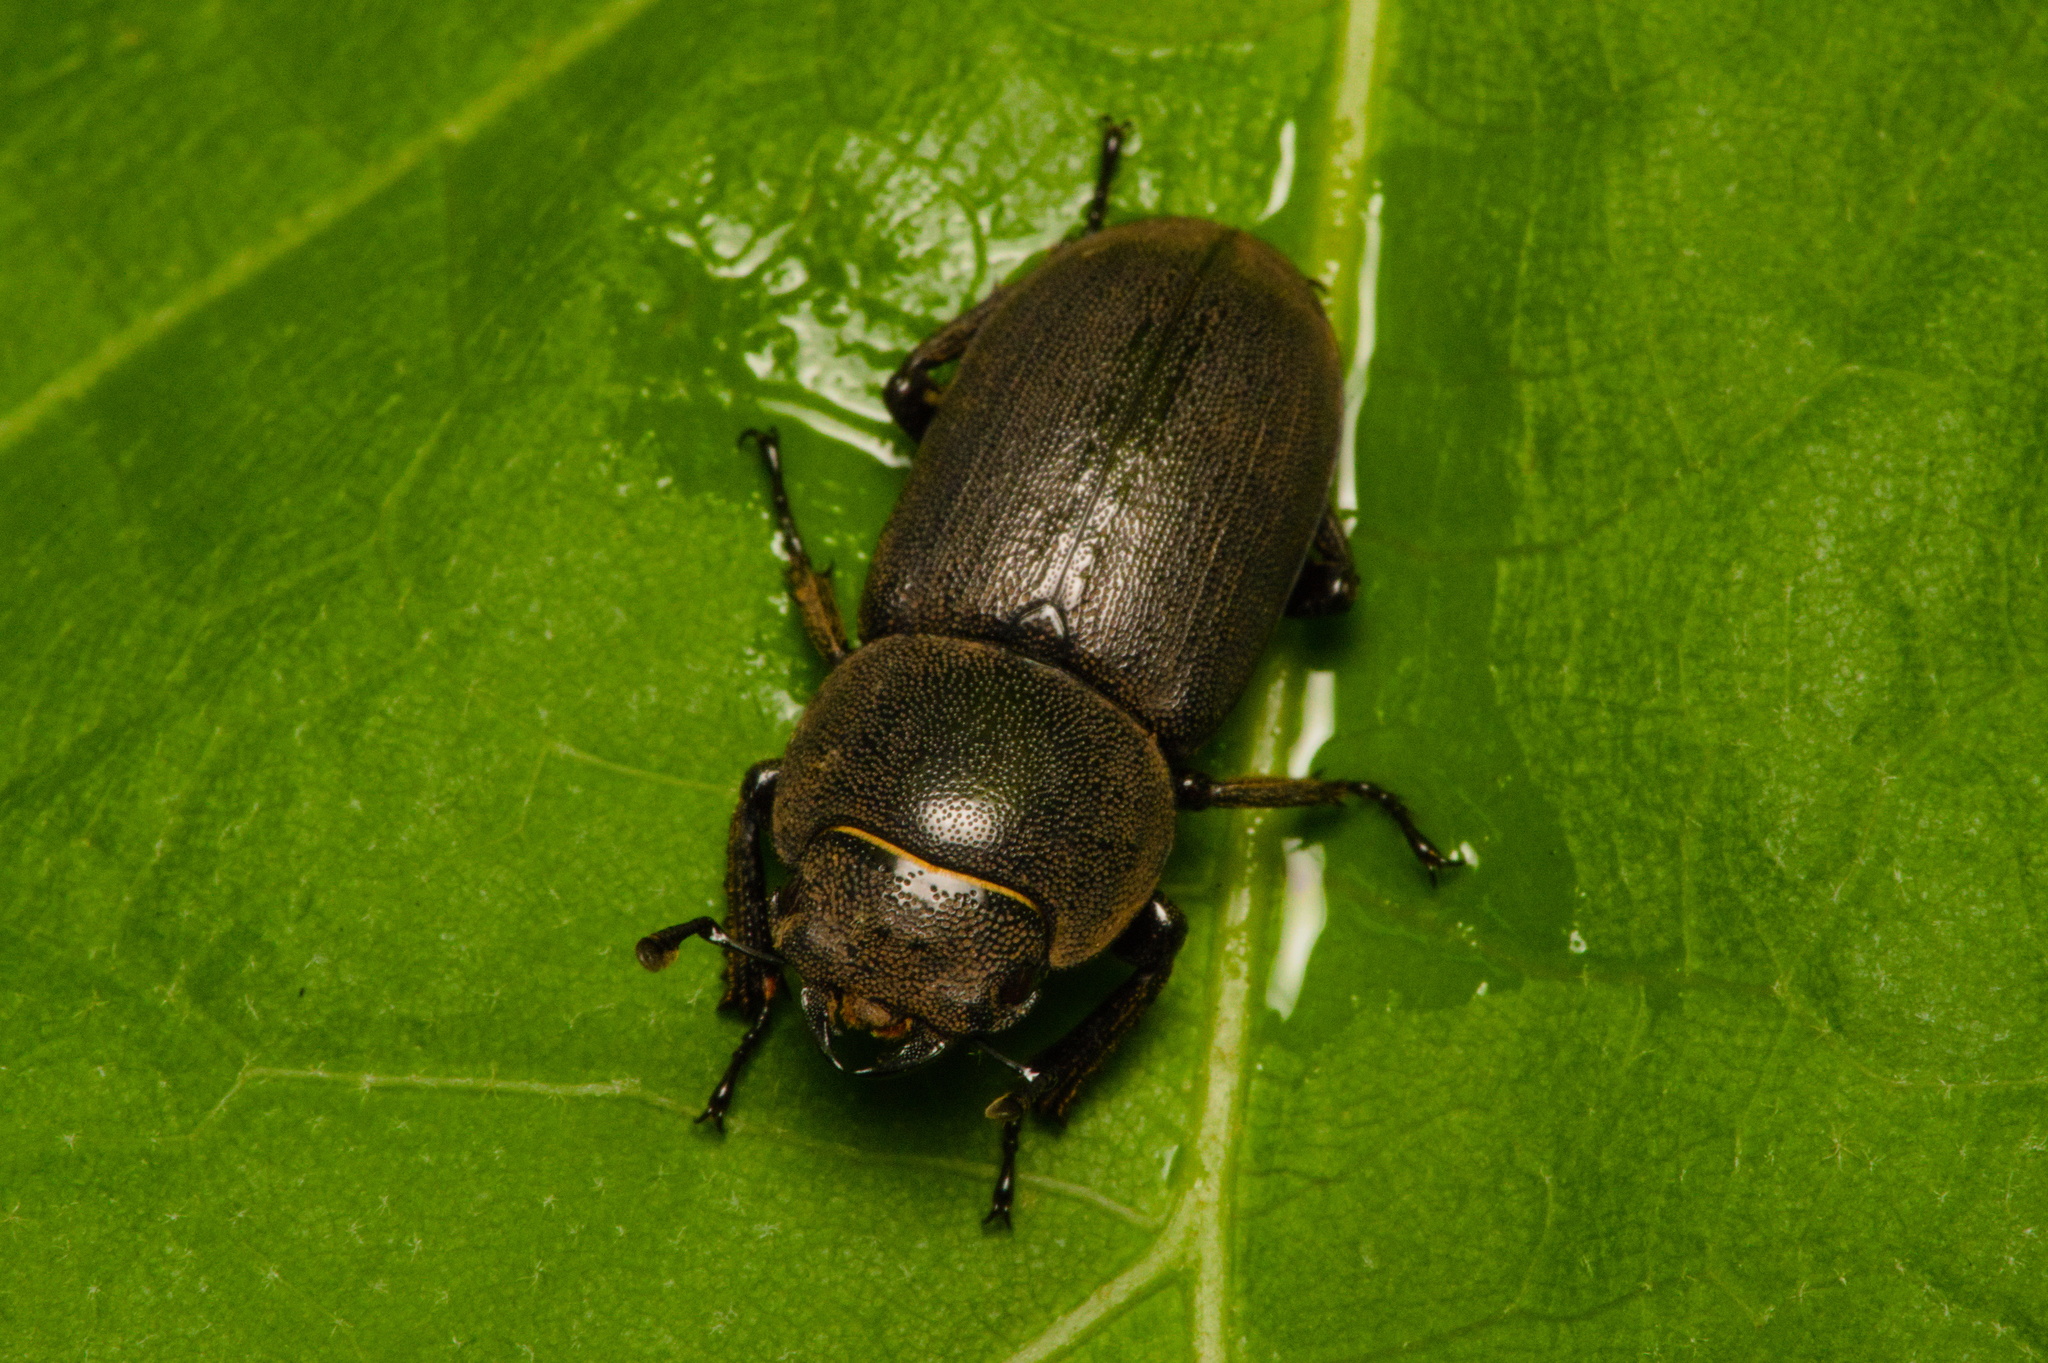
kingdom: Animalia
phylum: Arthropoda
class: Insecta
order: Coleoptera
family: Lucanidae
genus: Dorcus
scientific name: Dorcus parallelipipedus
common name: Lesser stag beetle
